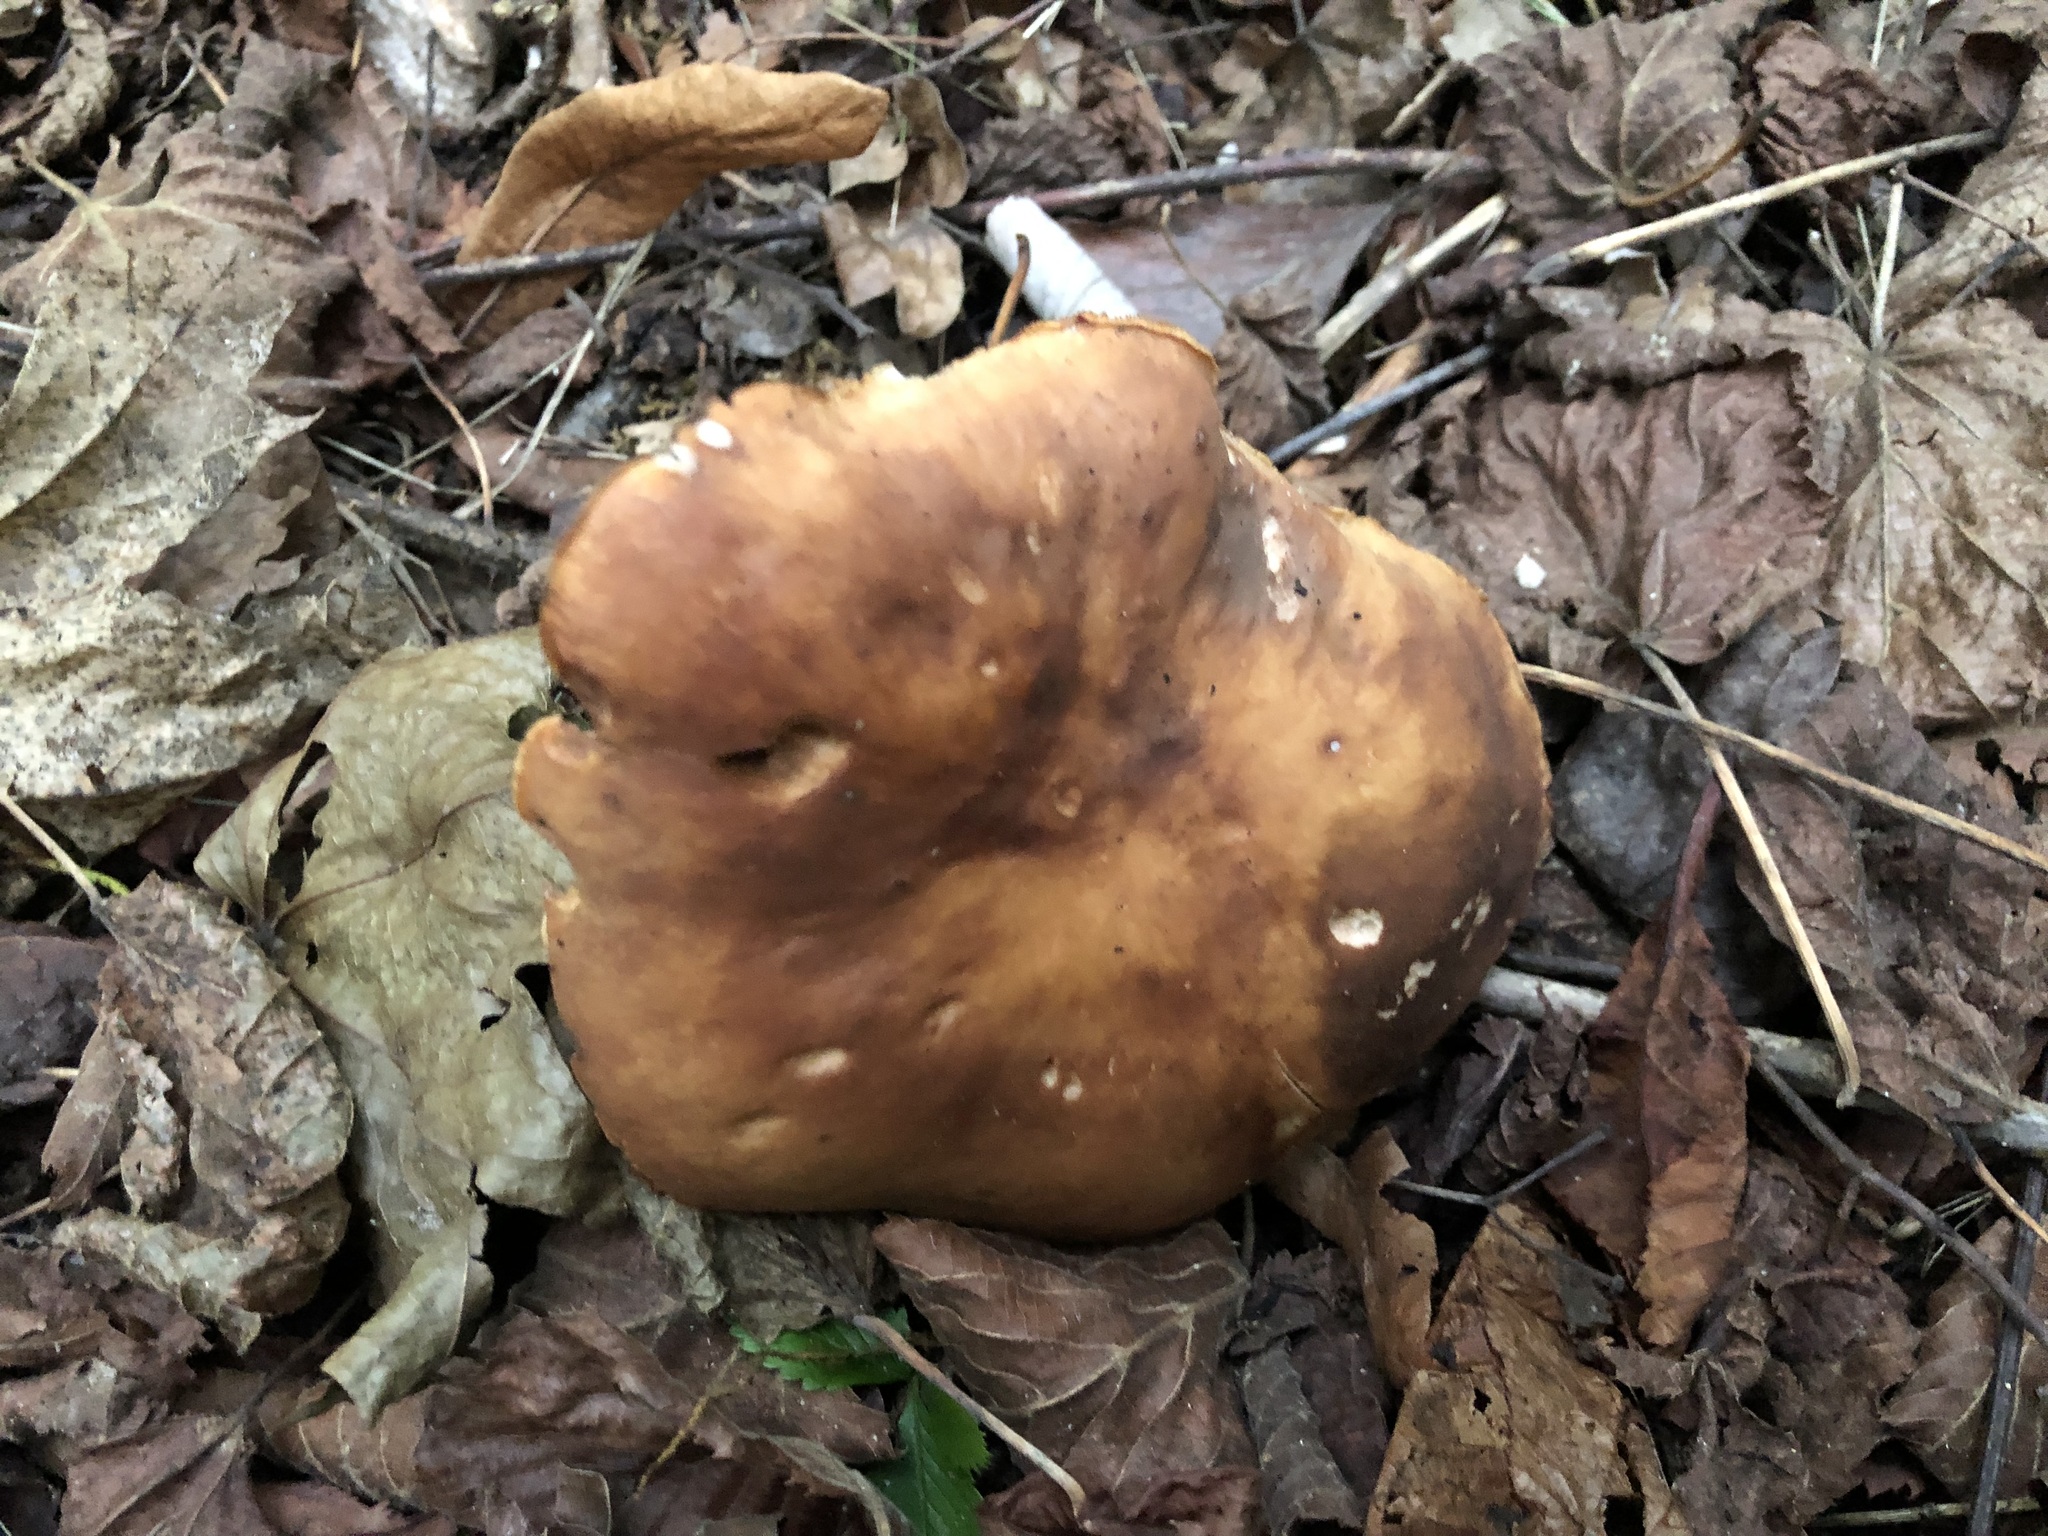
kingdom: Fungi
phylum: Basidiomycota
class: Agaricomycetes
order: Agaricales
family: Entolomataceae
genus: Clitopilus
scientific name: Clitopilus geminus
